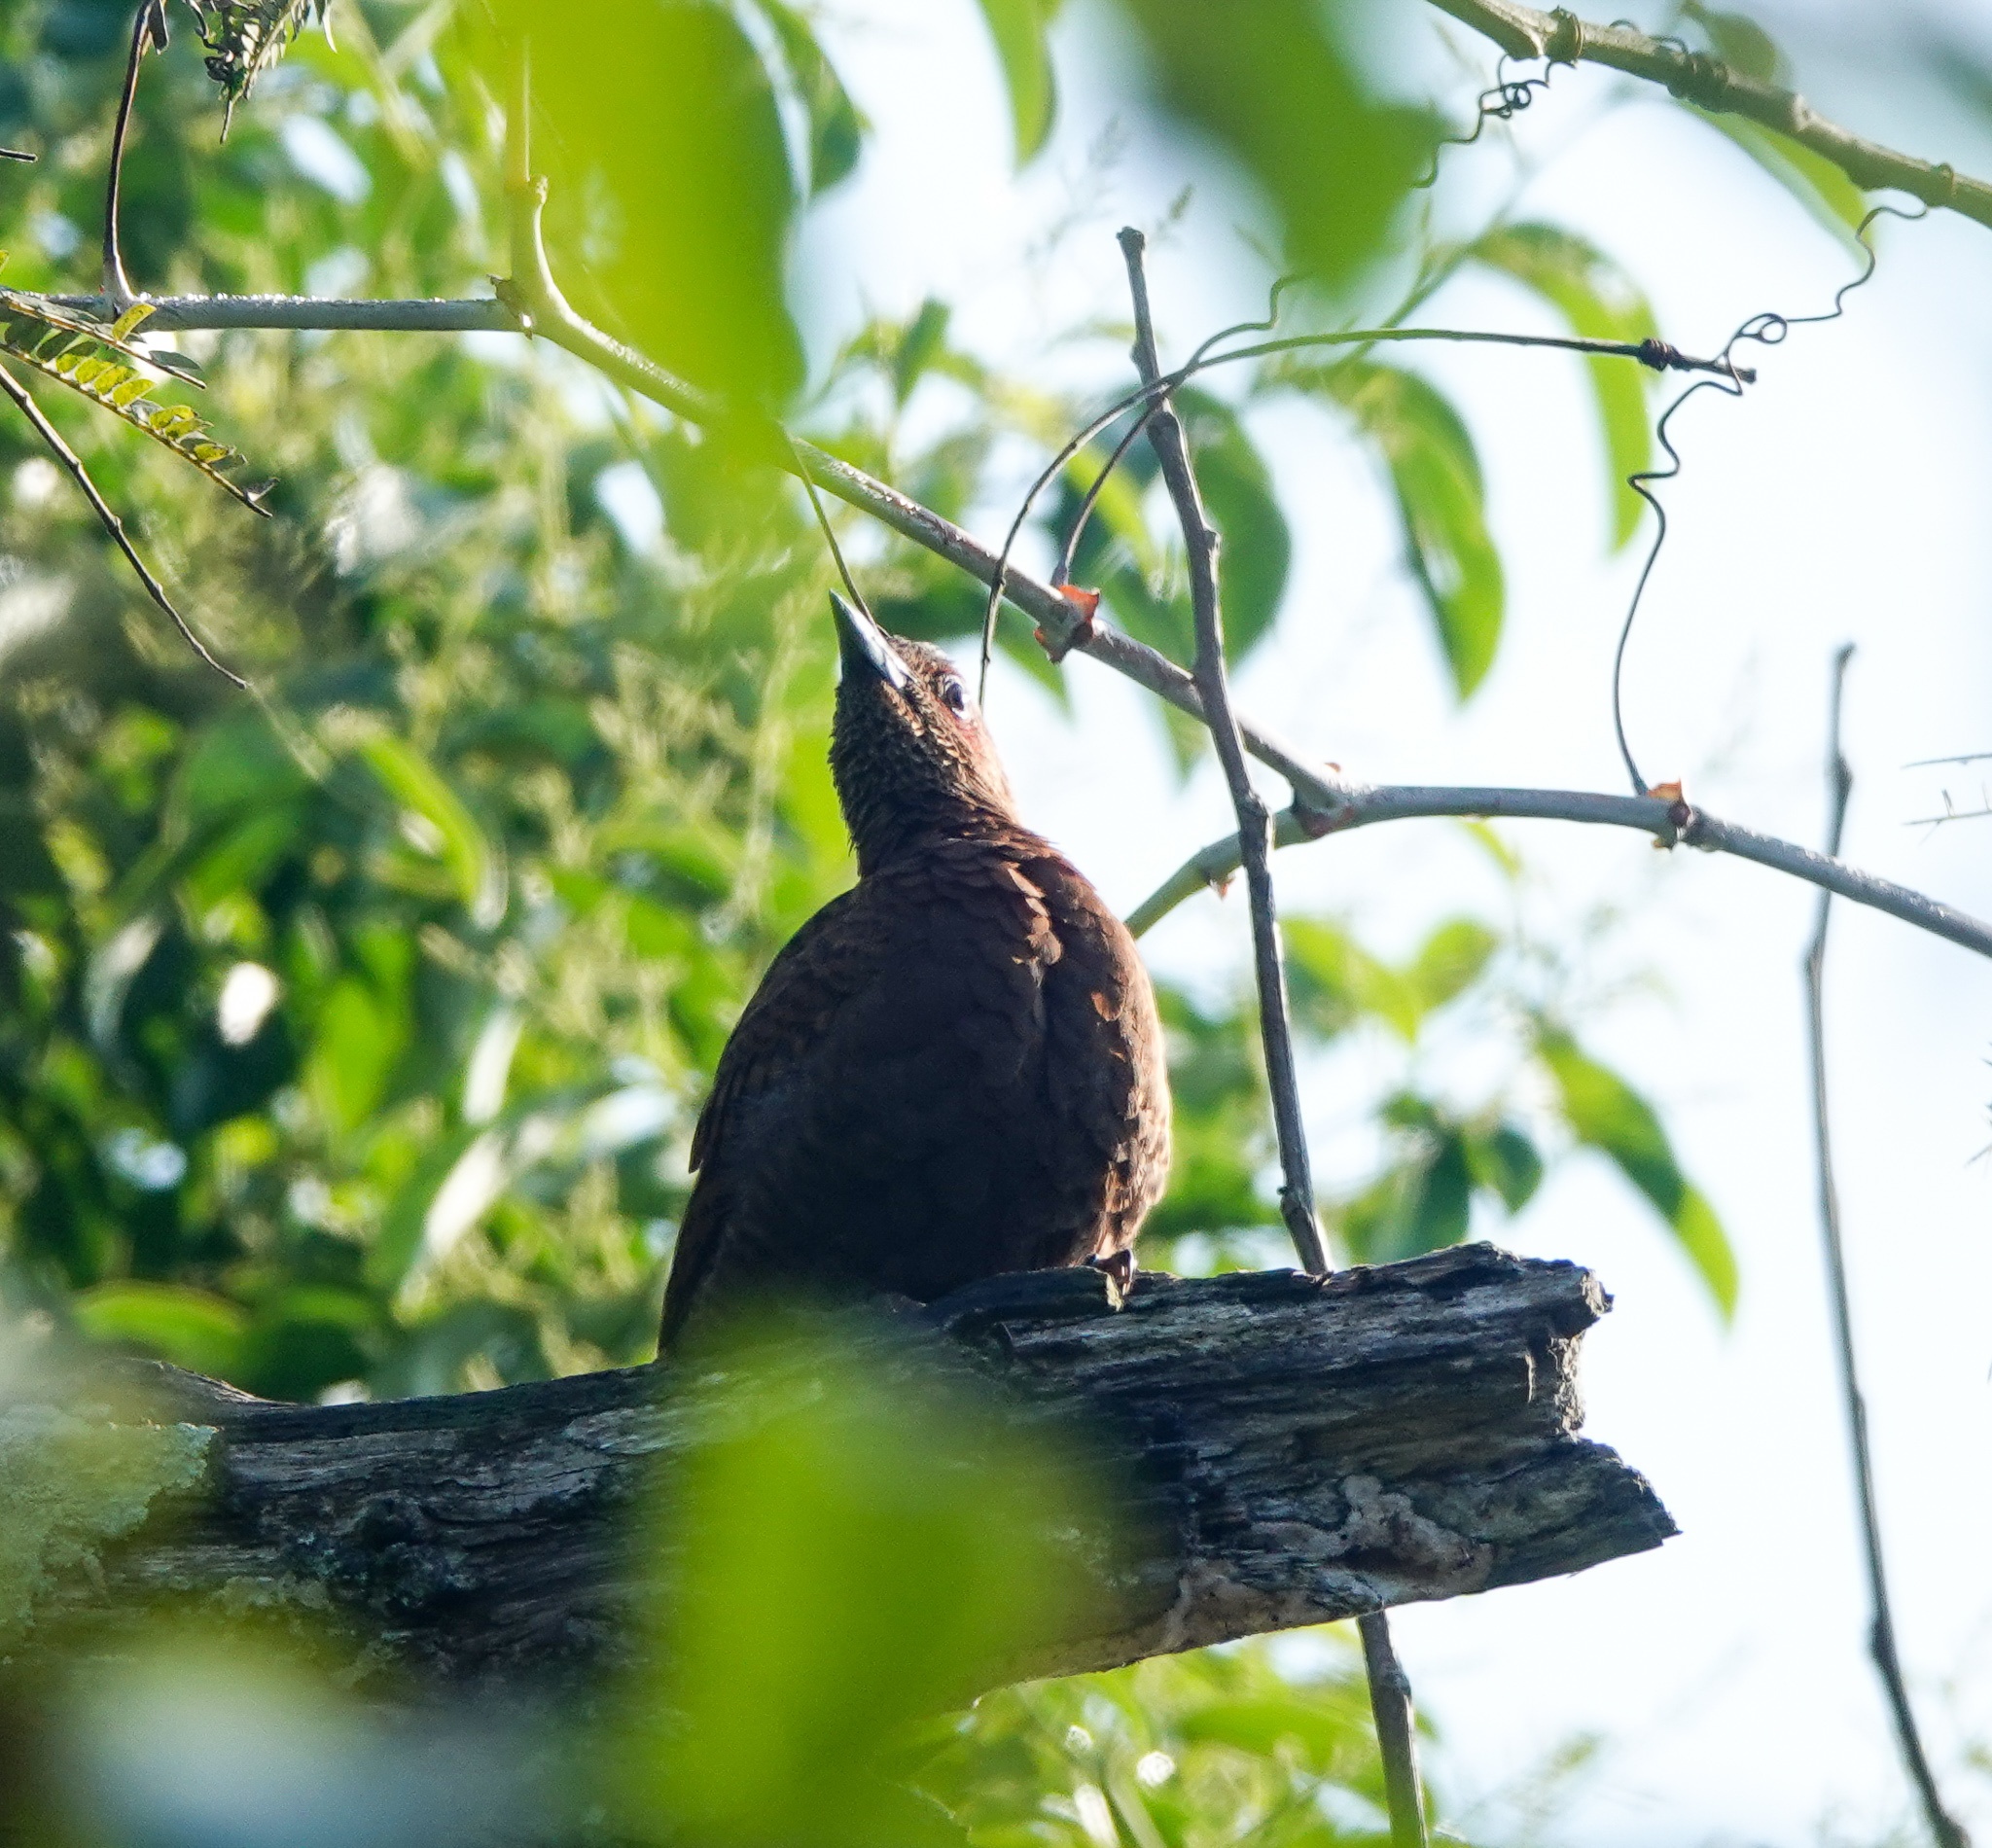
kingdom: Animalia
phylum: Chordata
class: Aves
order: Piciformes
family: Picidae
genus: Micropternus
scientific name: Micropternus brachyurus
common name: Rufous woodpecker
